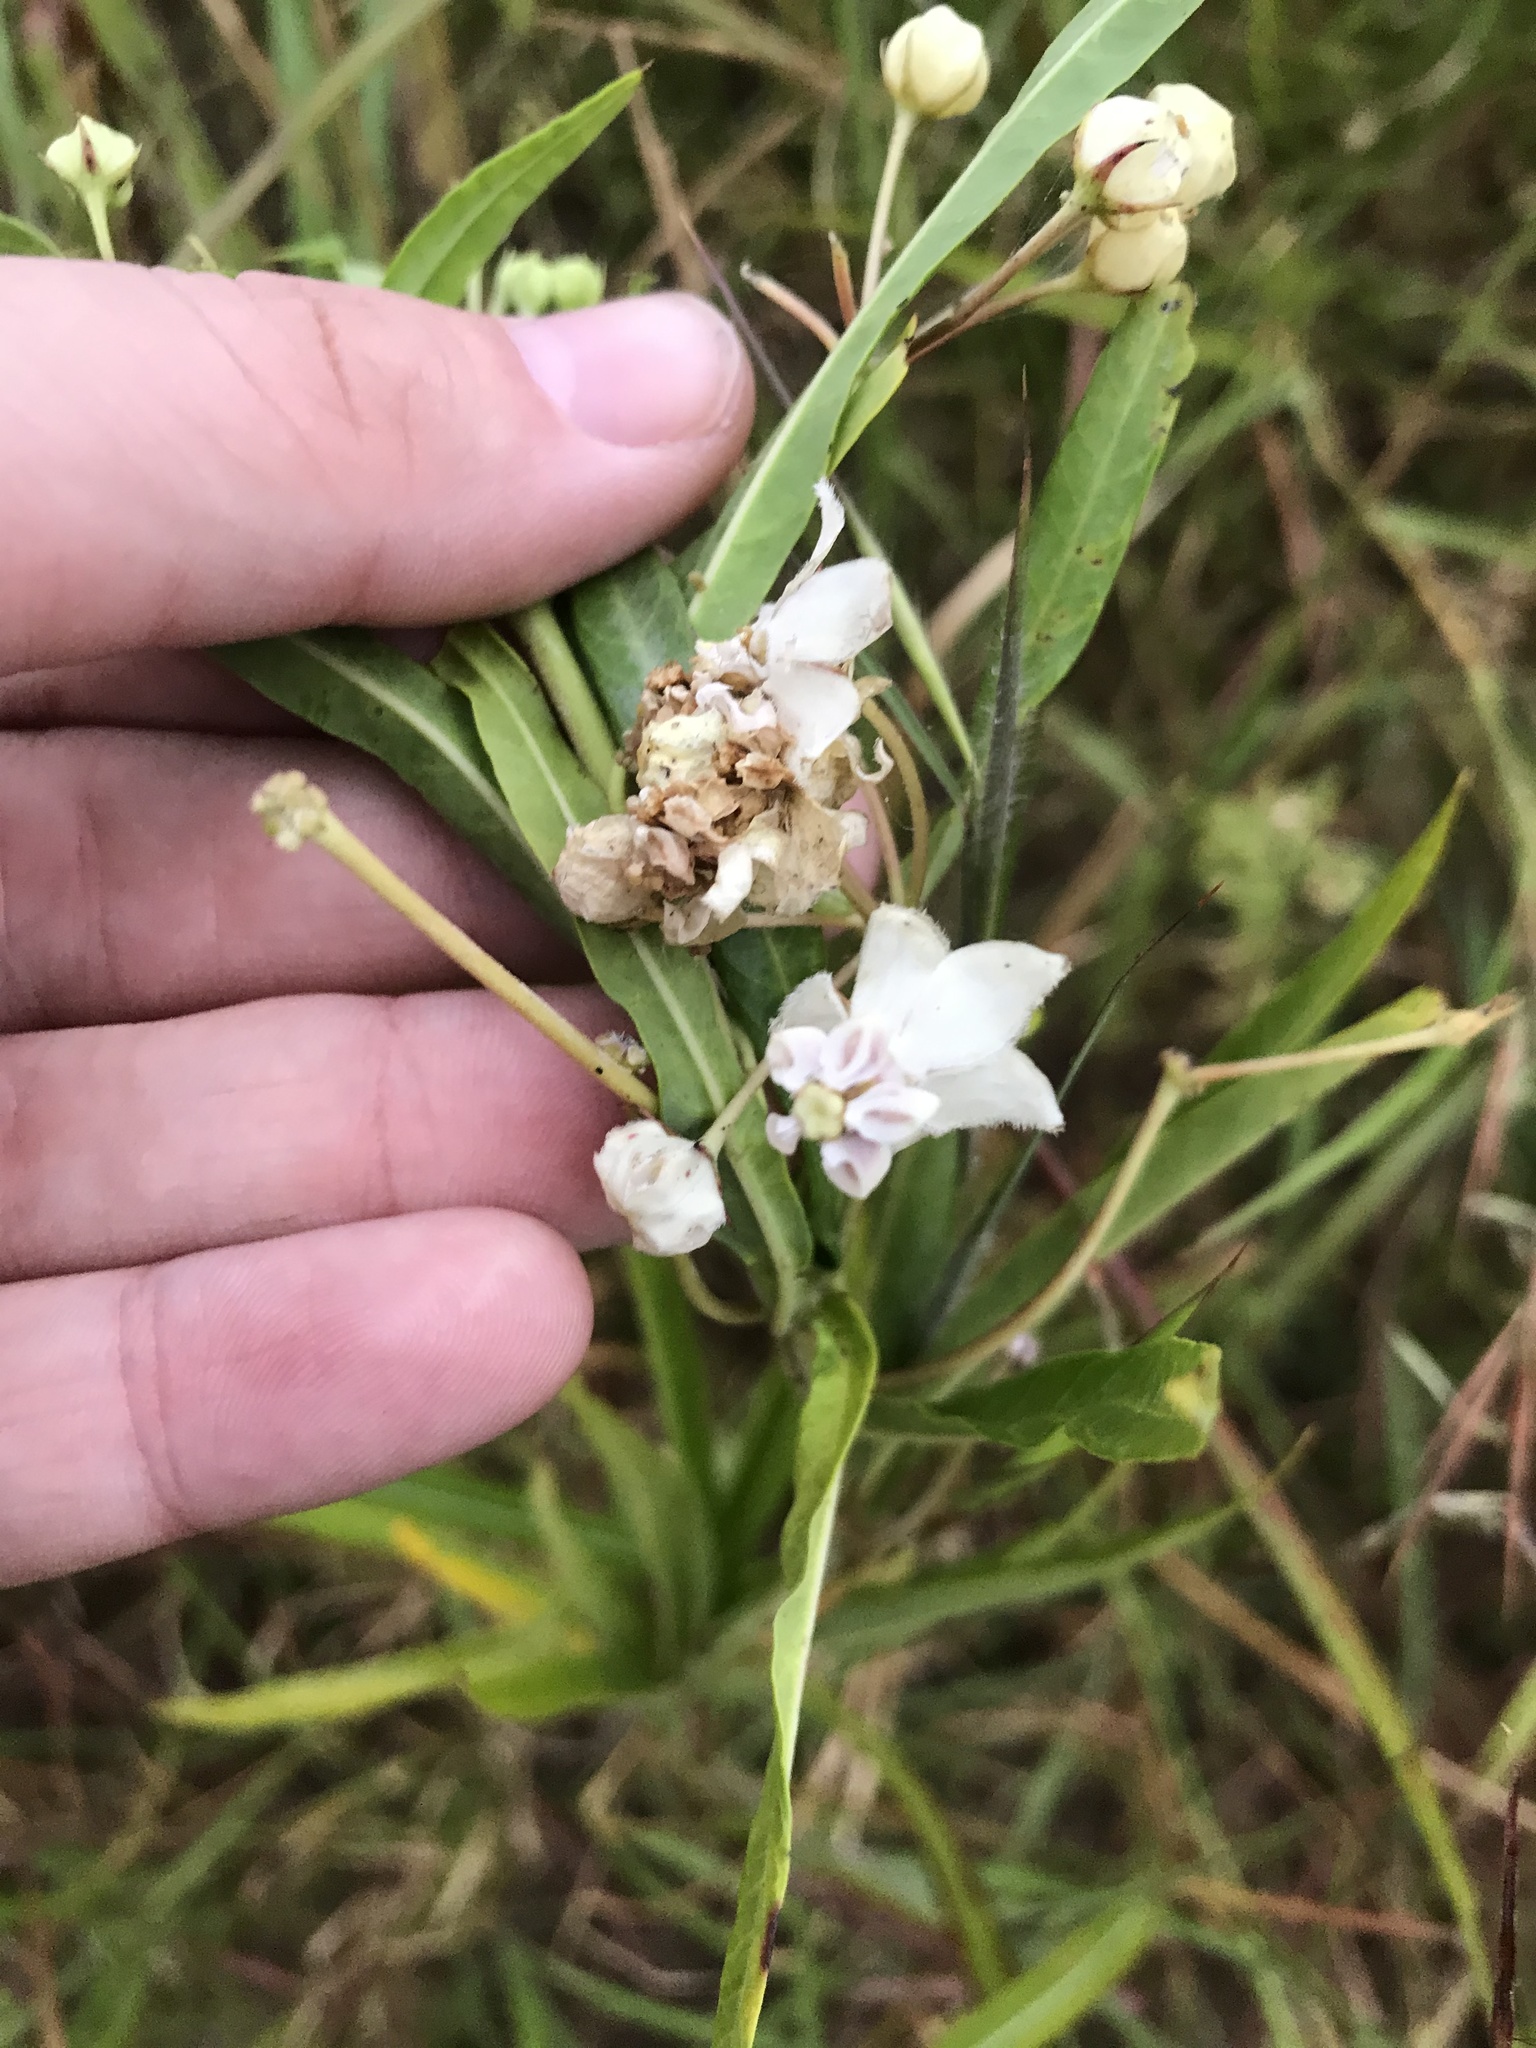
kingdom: Plantae
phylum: Tracheophyta
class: Magnoliopsida
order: Gentianales
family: Apocynaceae
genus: Gomphocarpus
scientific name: Gomphocarpus physocarpus
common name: Balloon cotton bush
